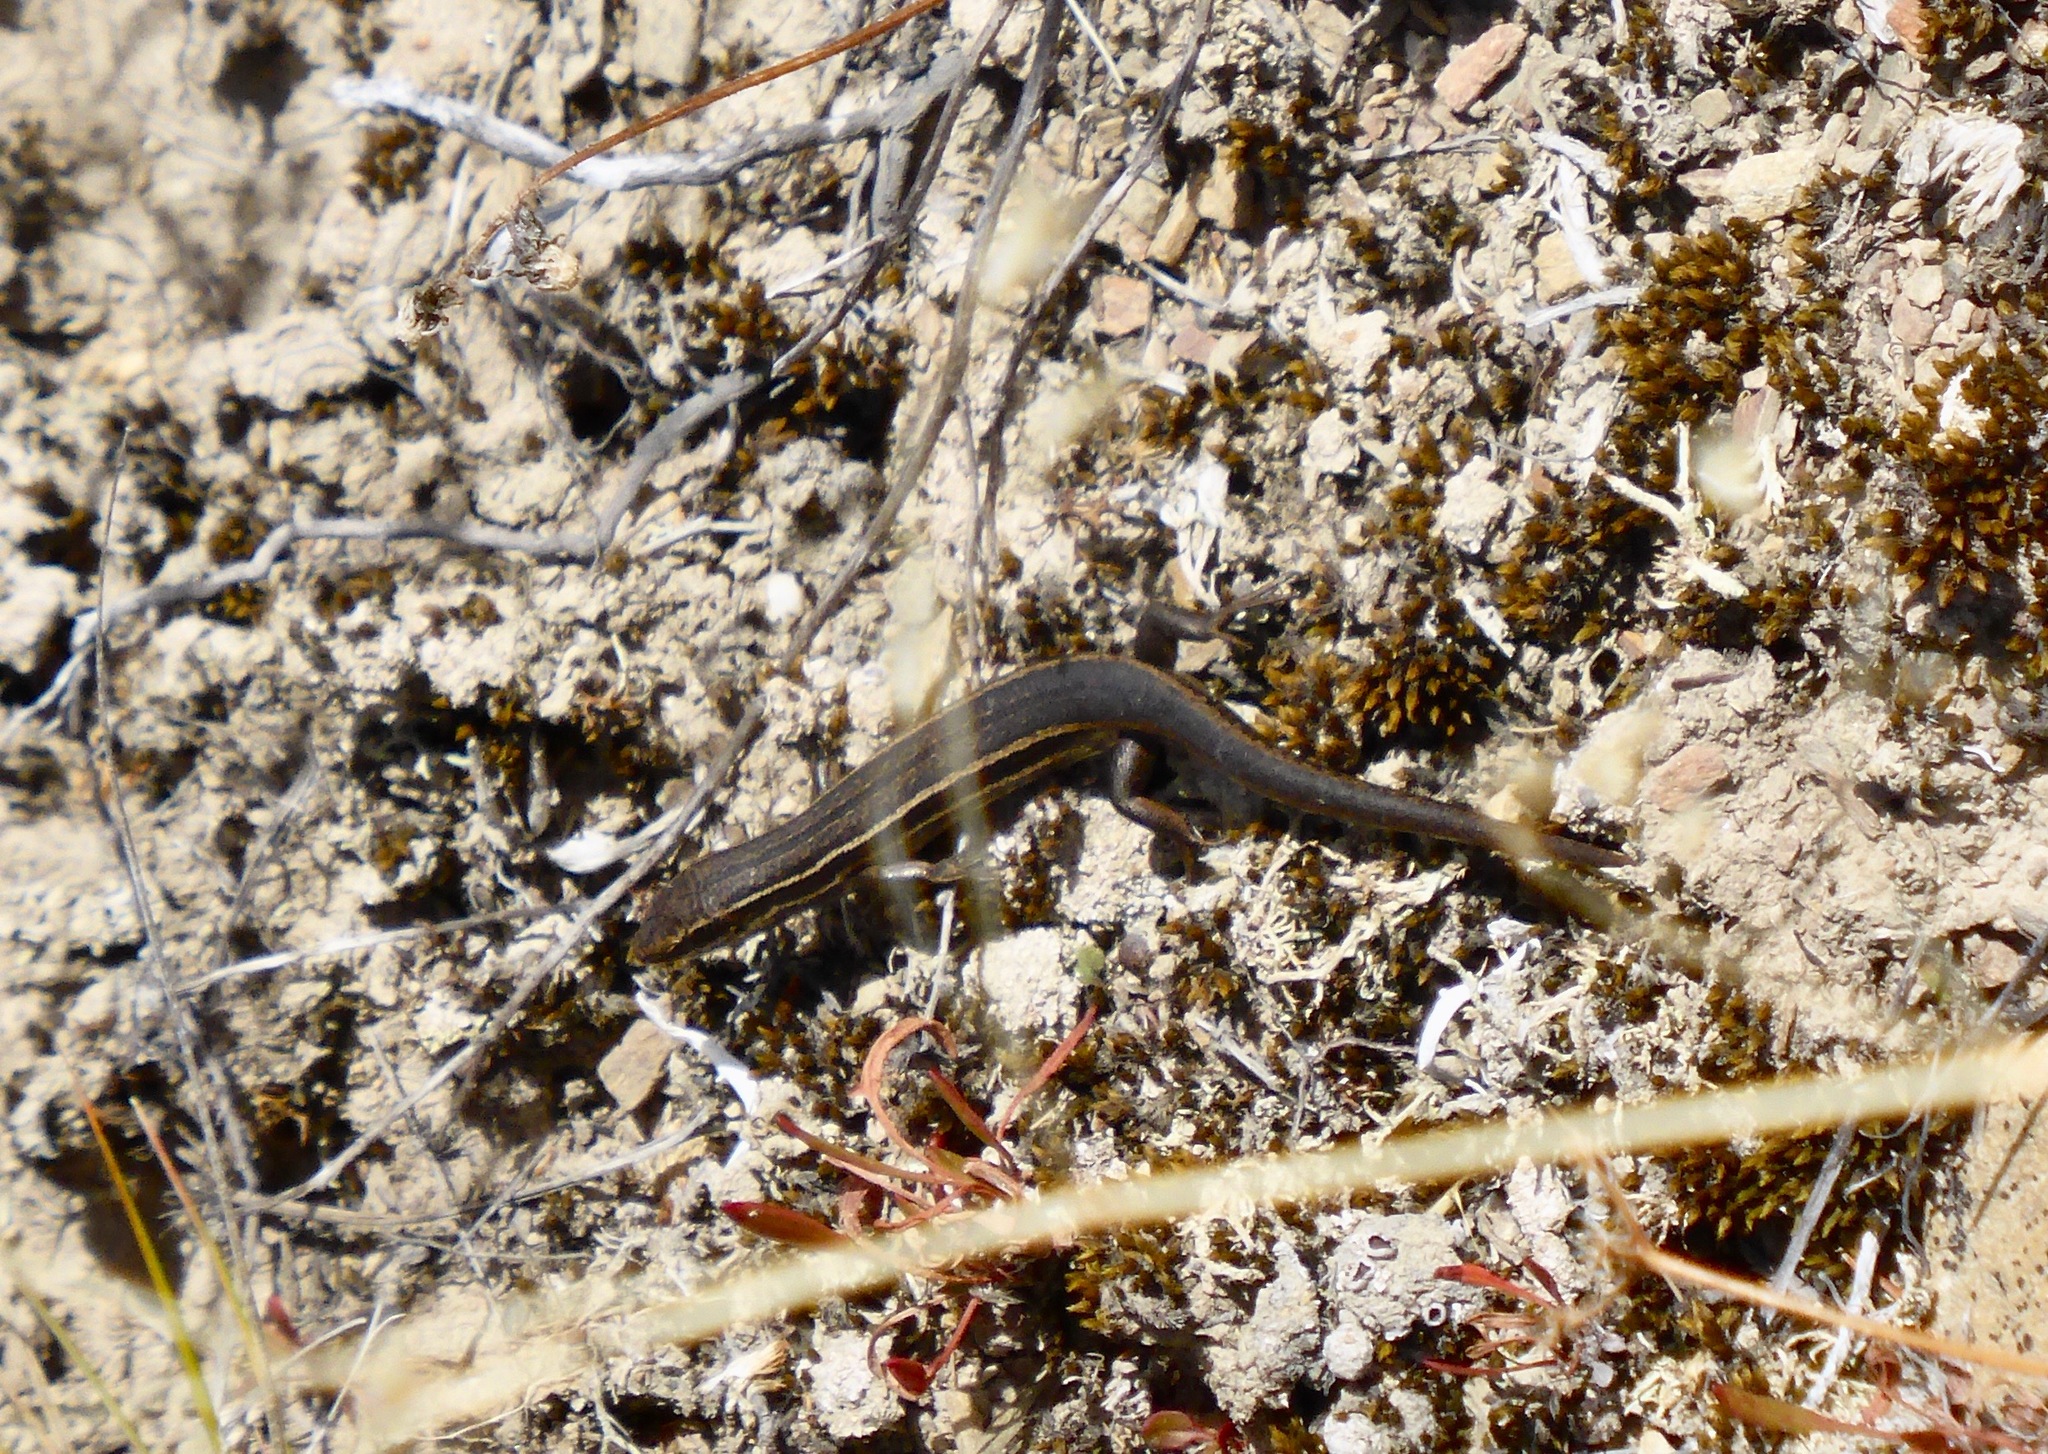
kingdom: Animalia
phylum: Chordata
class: Squamata
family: Scincidae
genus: Oligosoma
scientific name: Oligosoma maccanni
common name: Mccann’s skink
